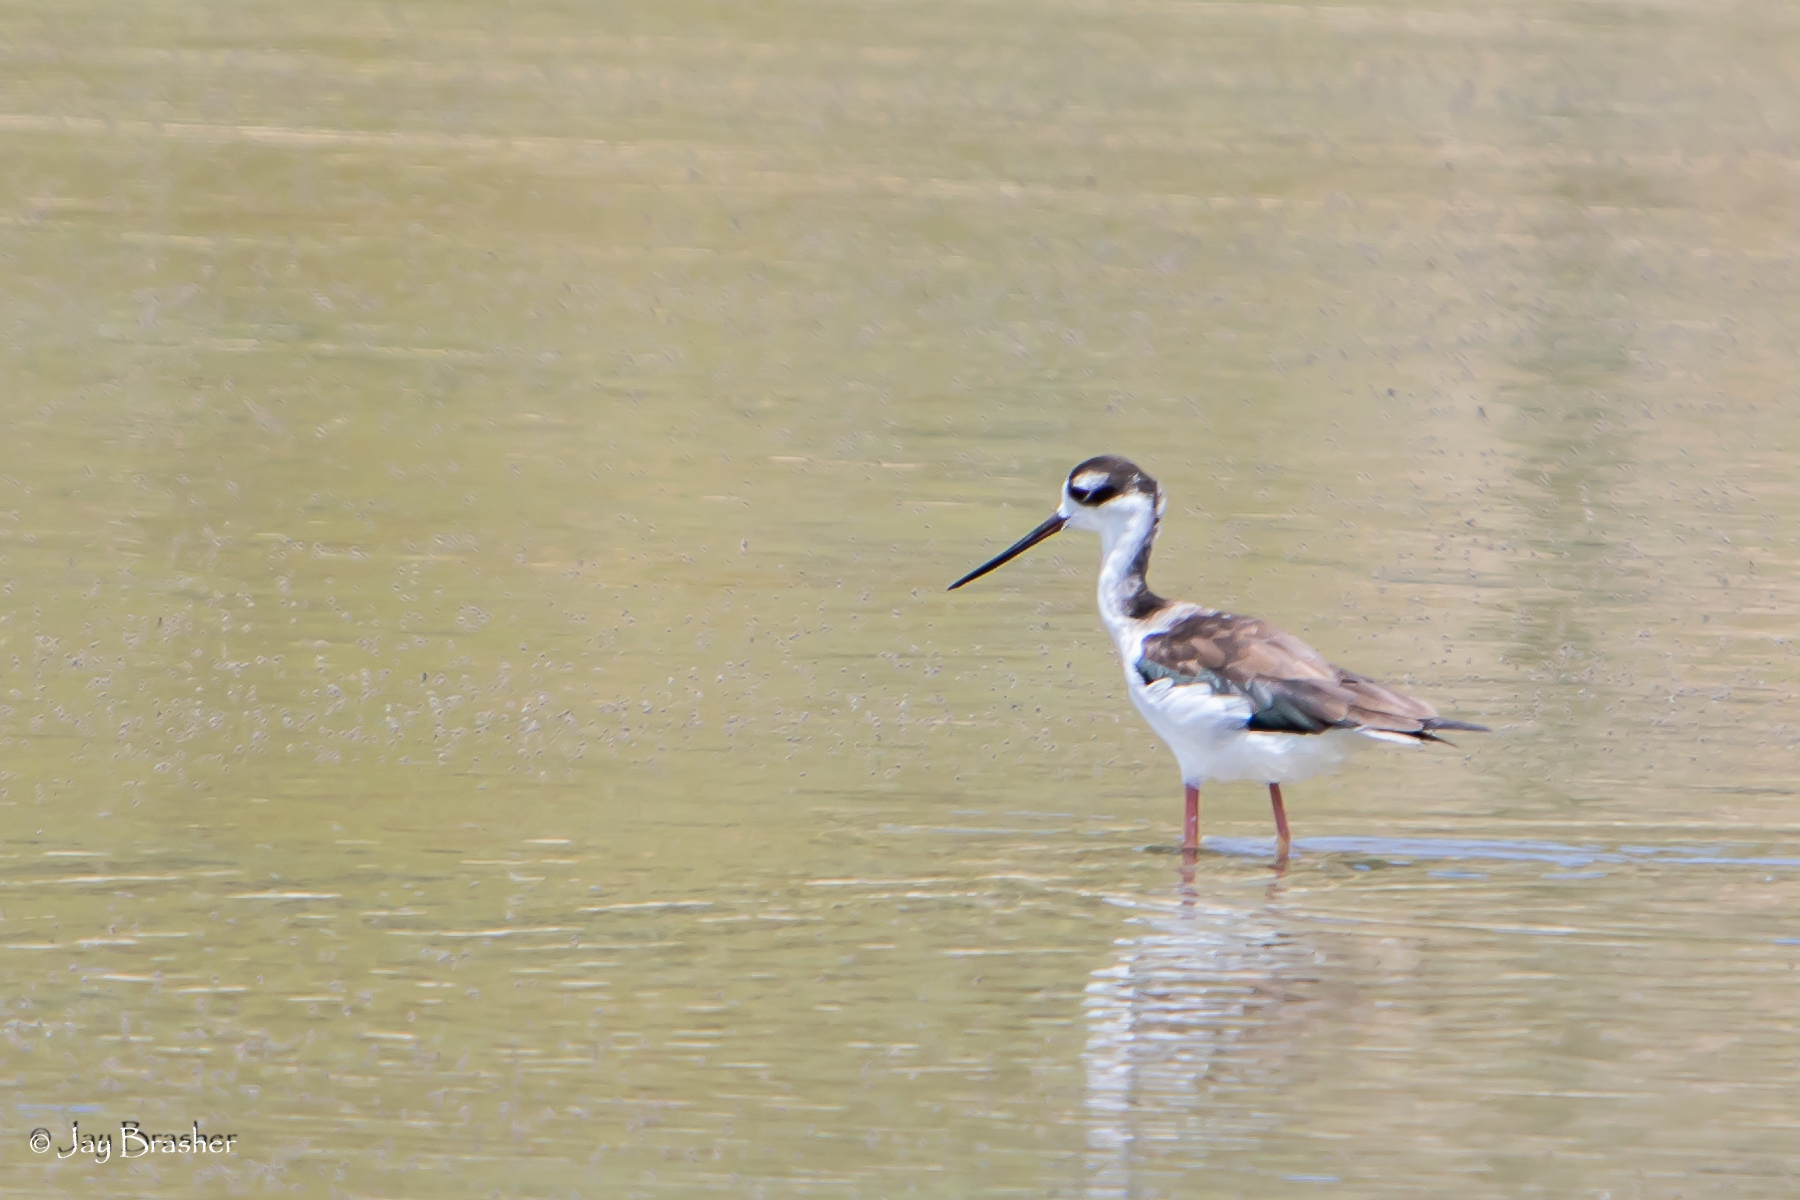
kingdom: Animalia
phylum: Chordata
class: Aves
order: Charadriiformes
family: Recurvirostridae
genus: Himantopus
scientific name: Himantopus mexicanus
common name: Black-necked stilt
